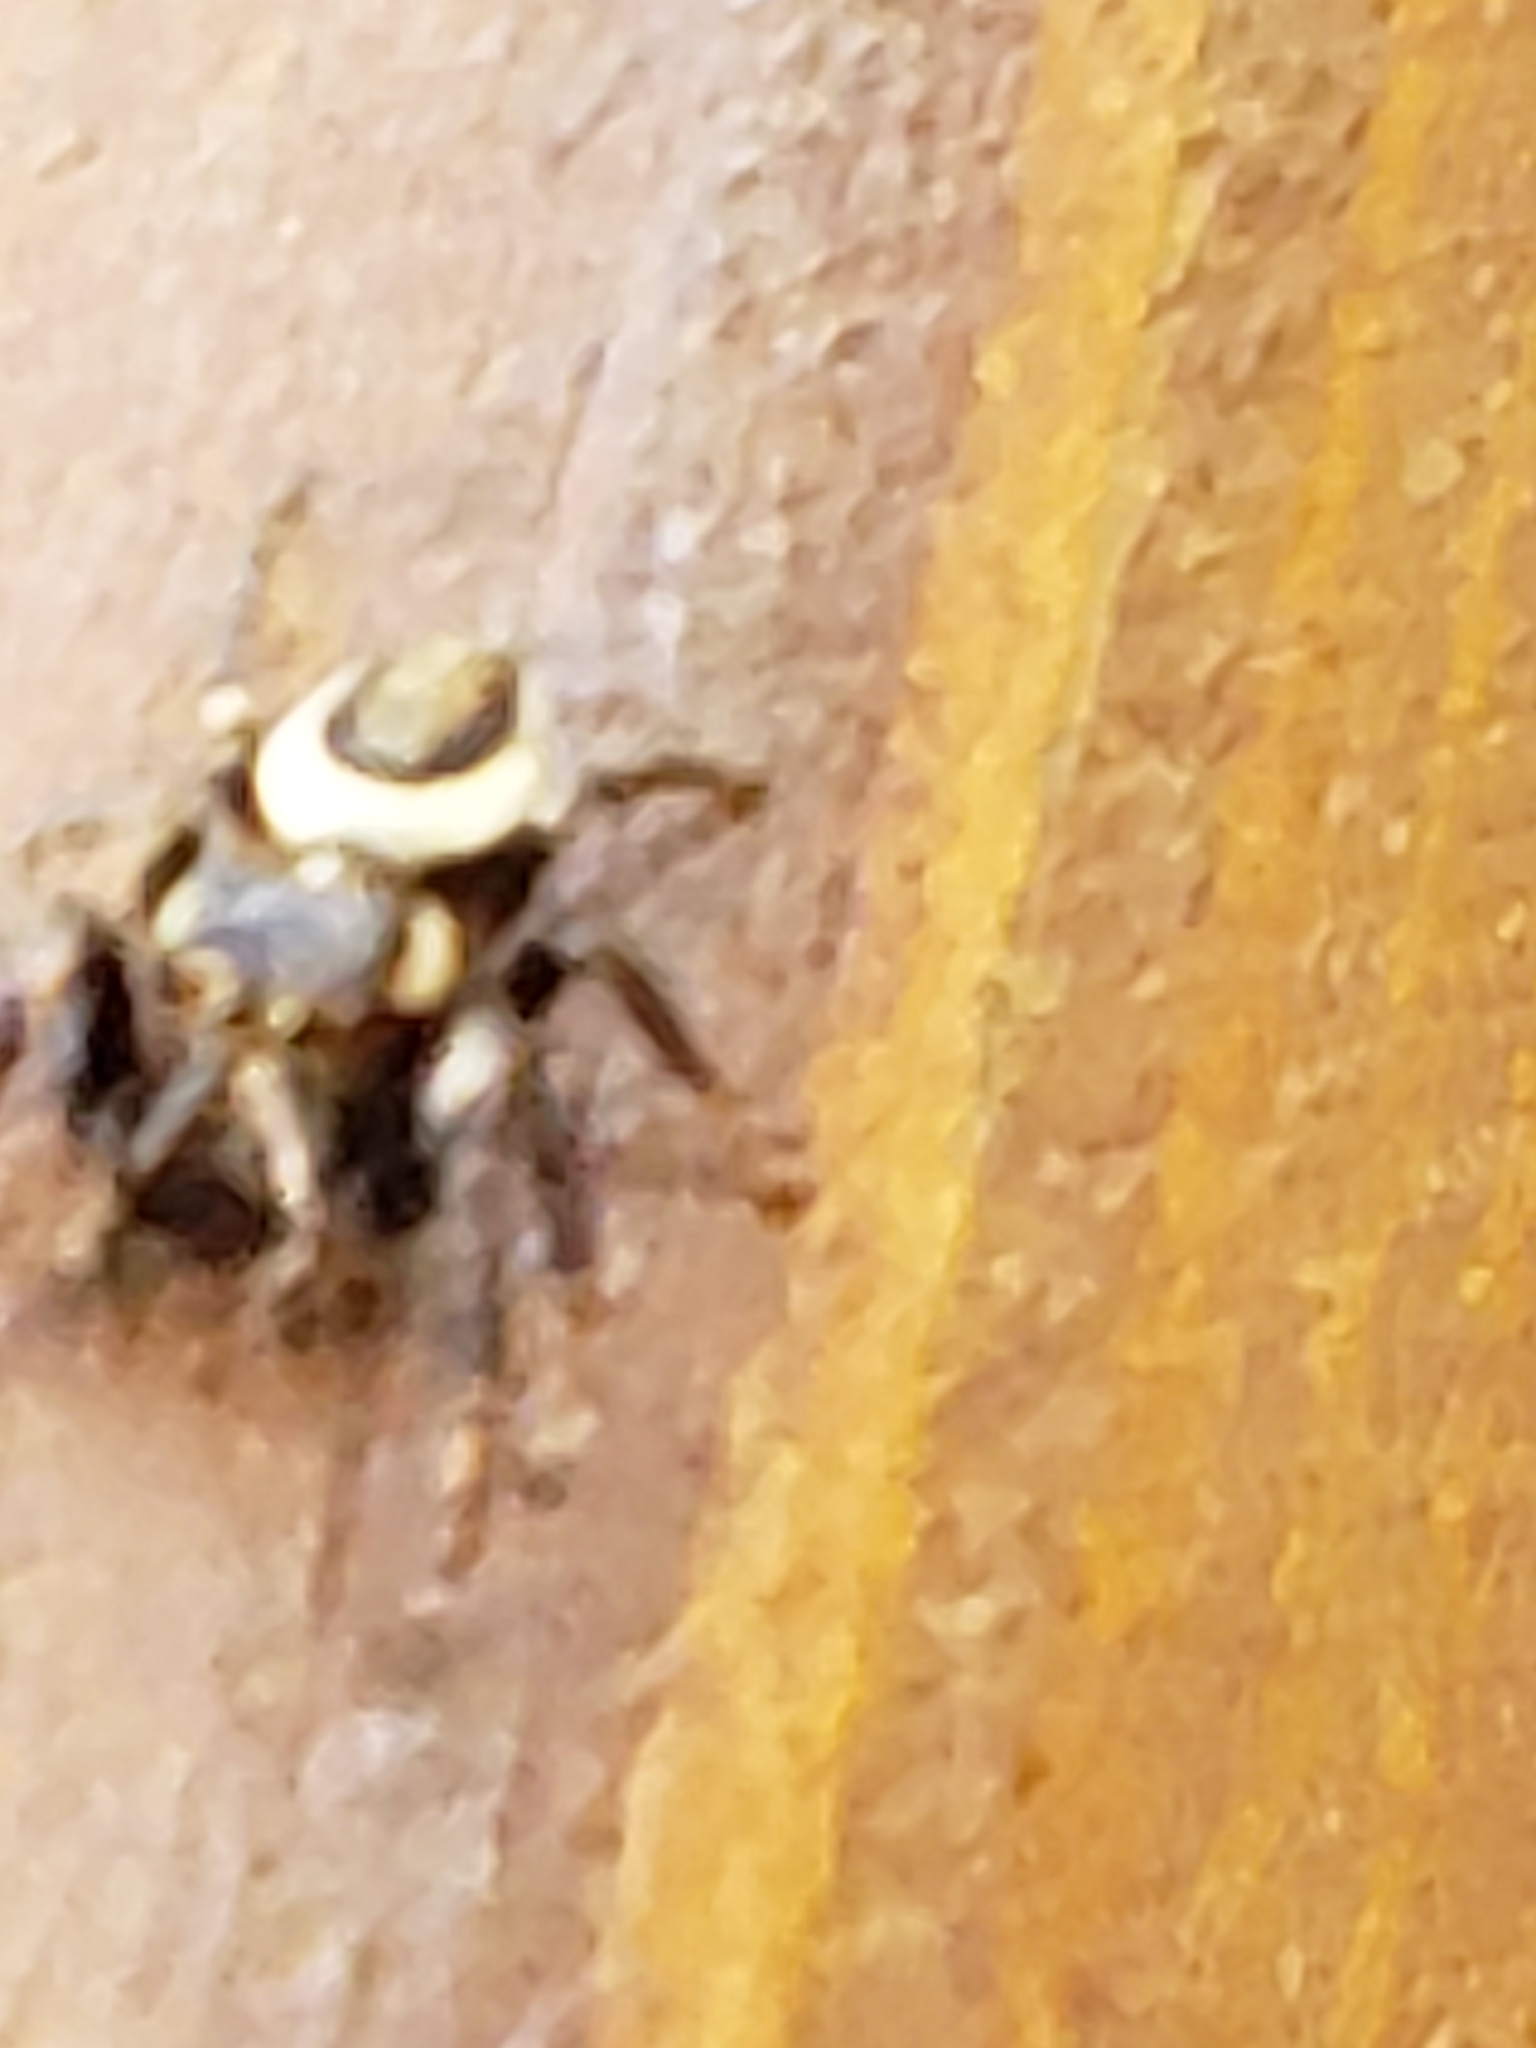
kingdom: Animalia
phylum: Arthropoda
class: Arachnida
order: Araneae
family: Salticidae
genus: Eris
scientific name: Eris militaris
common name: Bronze jumper
